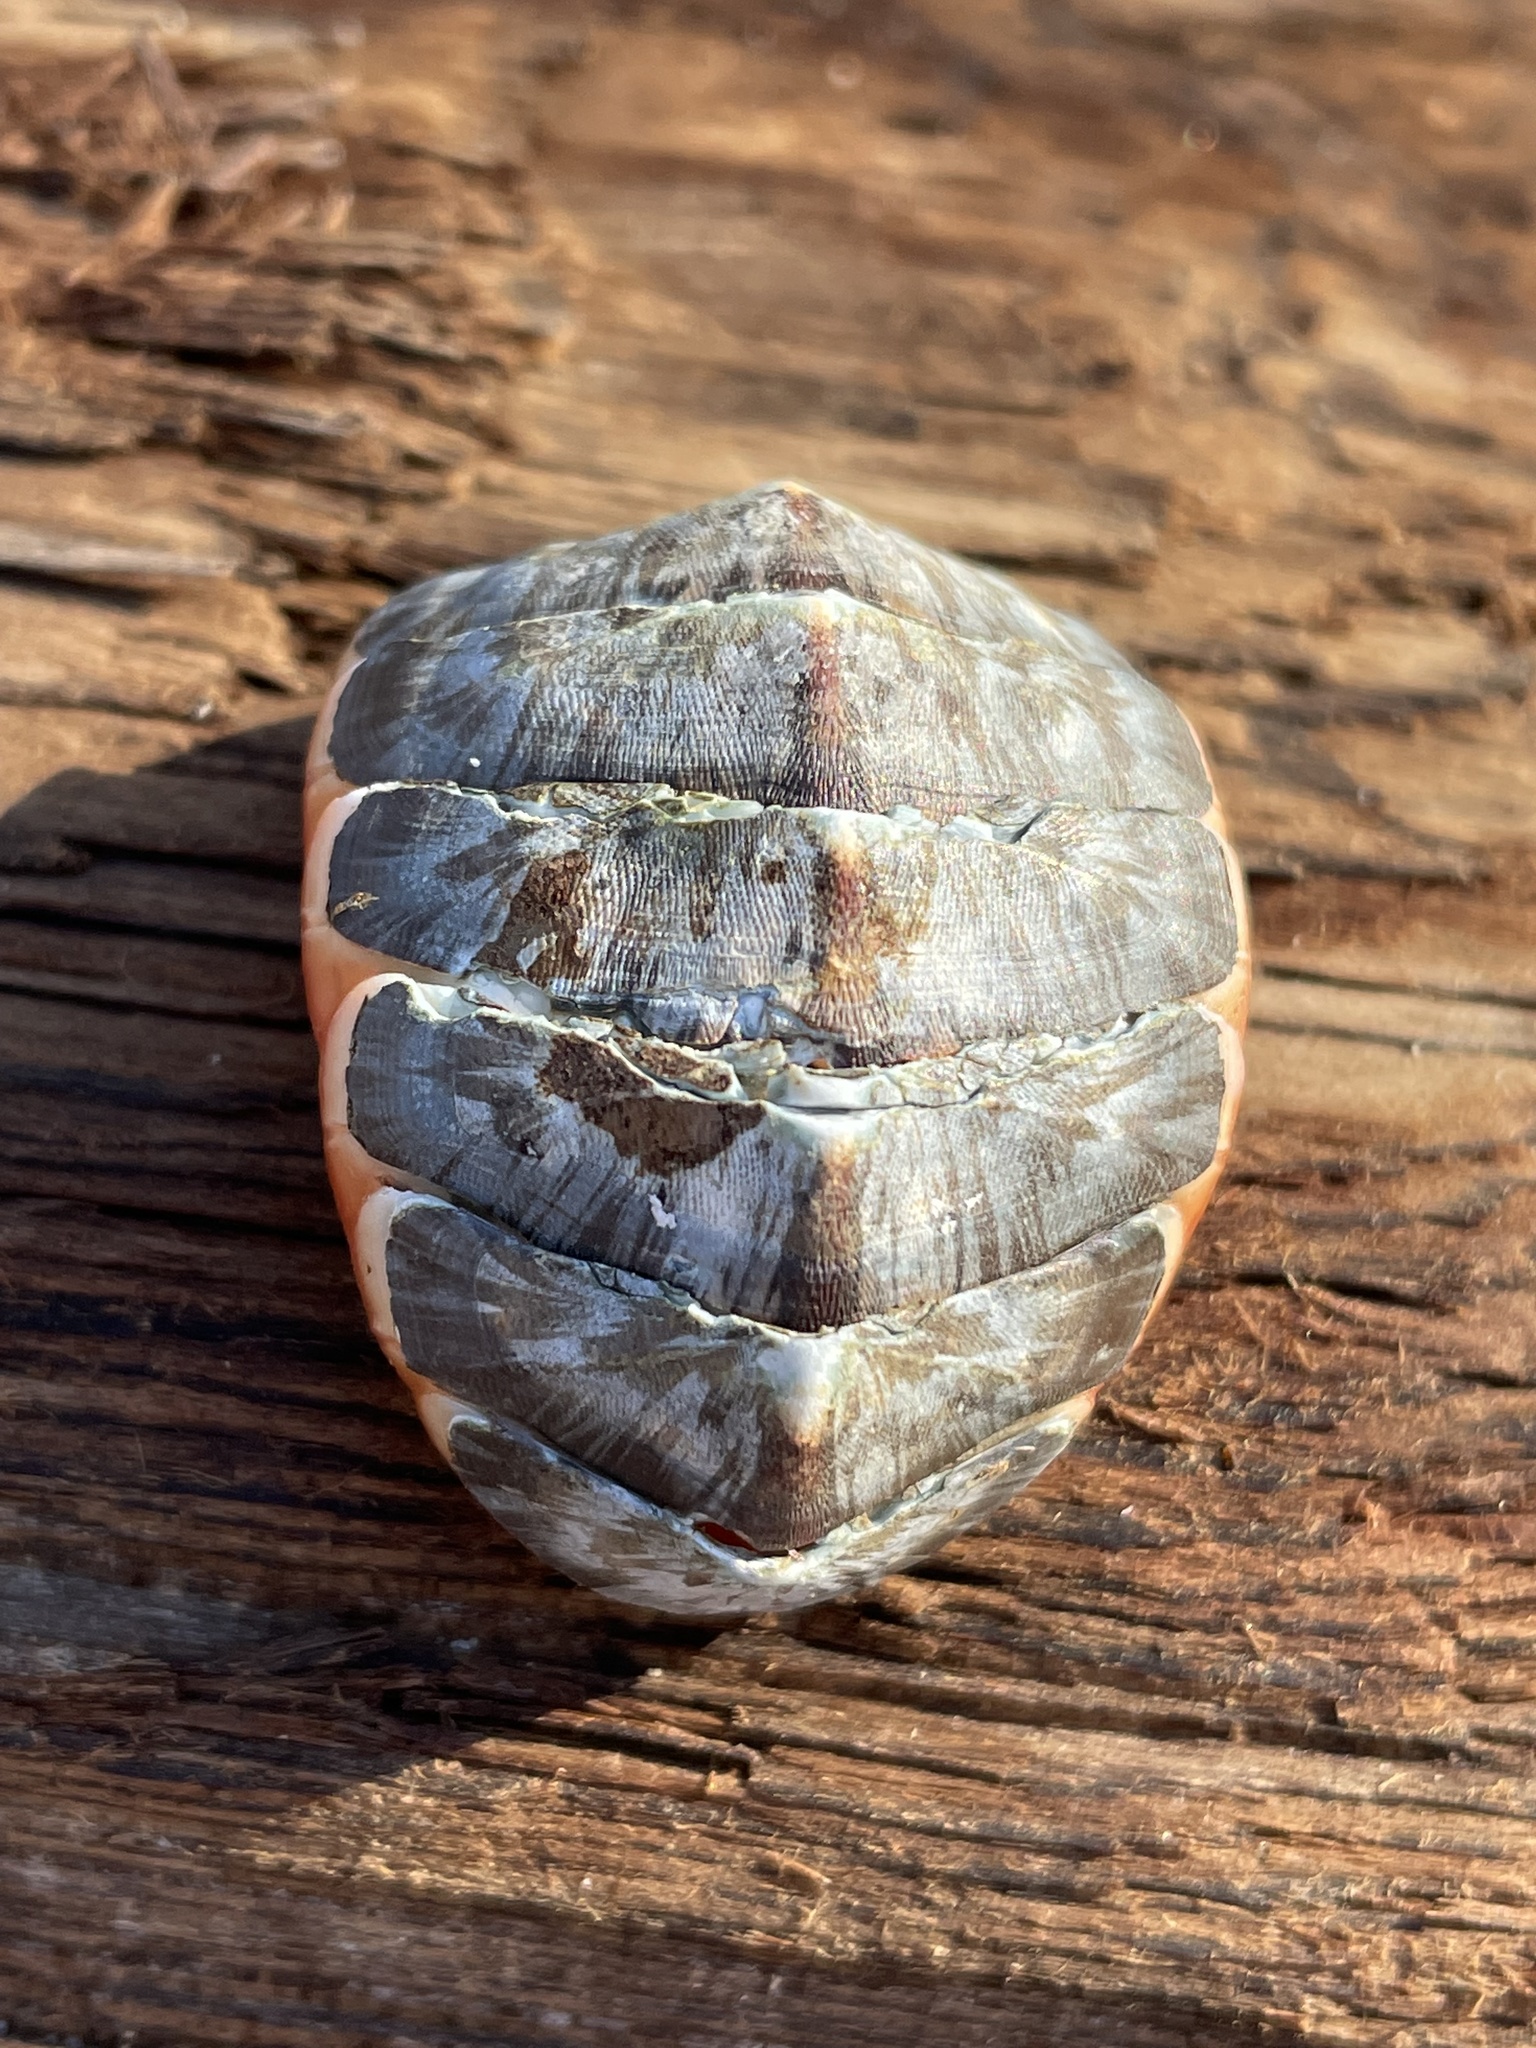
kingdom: Animalia
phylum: Mollusca
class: Polyplacophora
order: Chitonida
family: Mopaliidae
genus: Mopalia
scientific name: Mopalia lignosa
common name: Woody chiton
